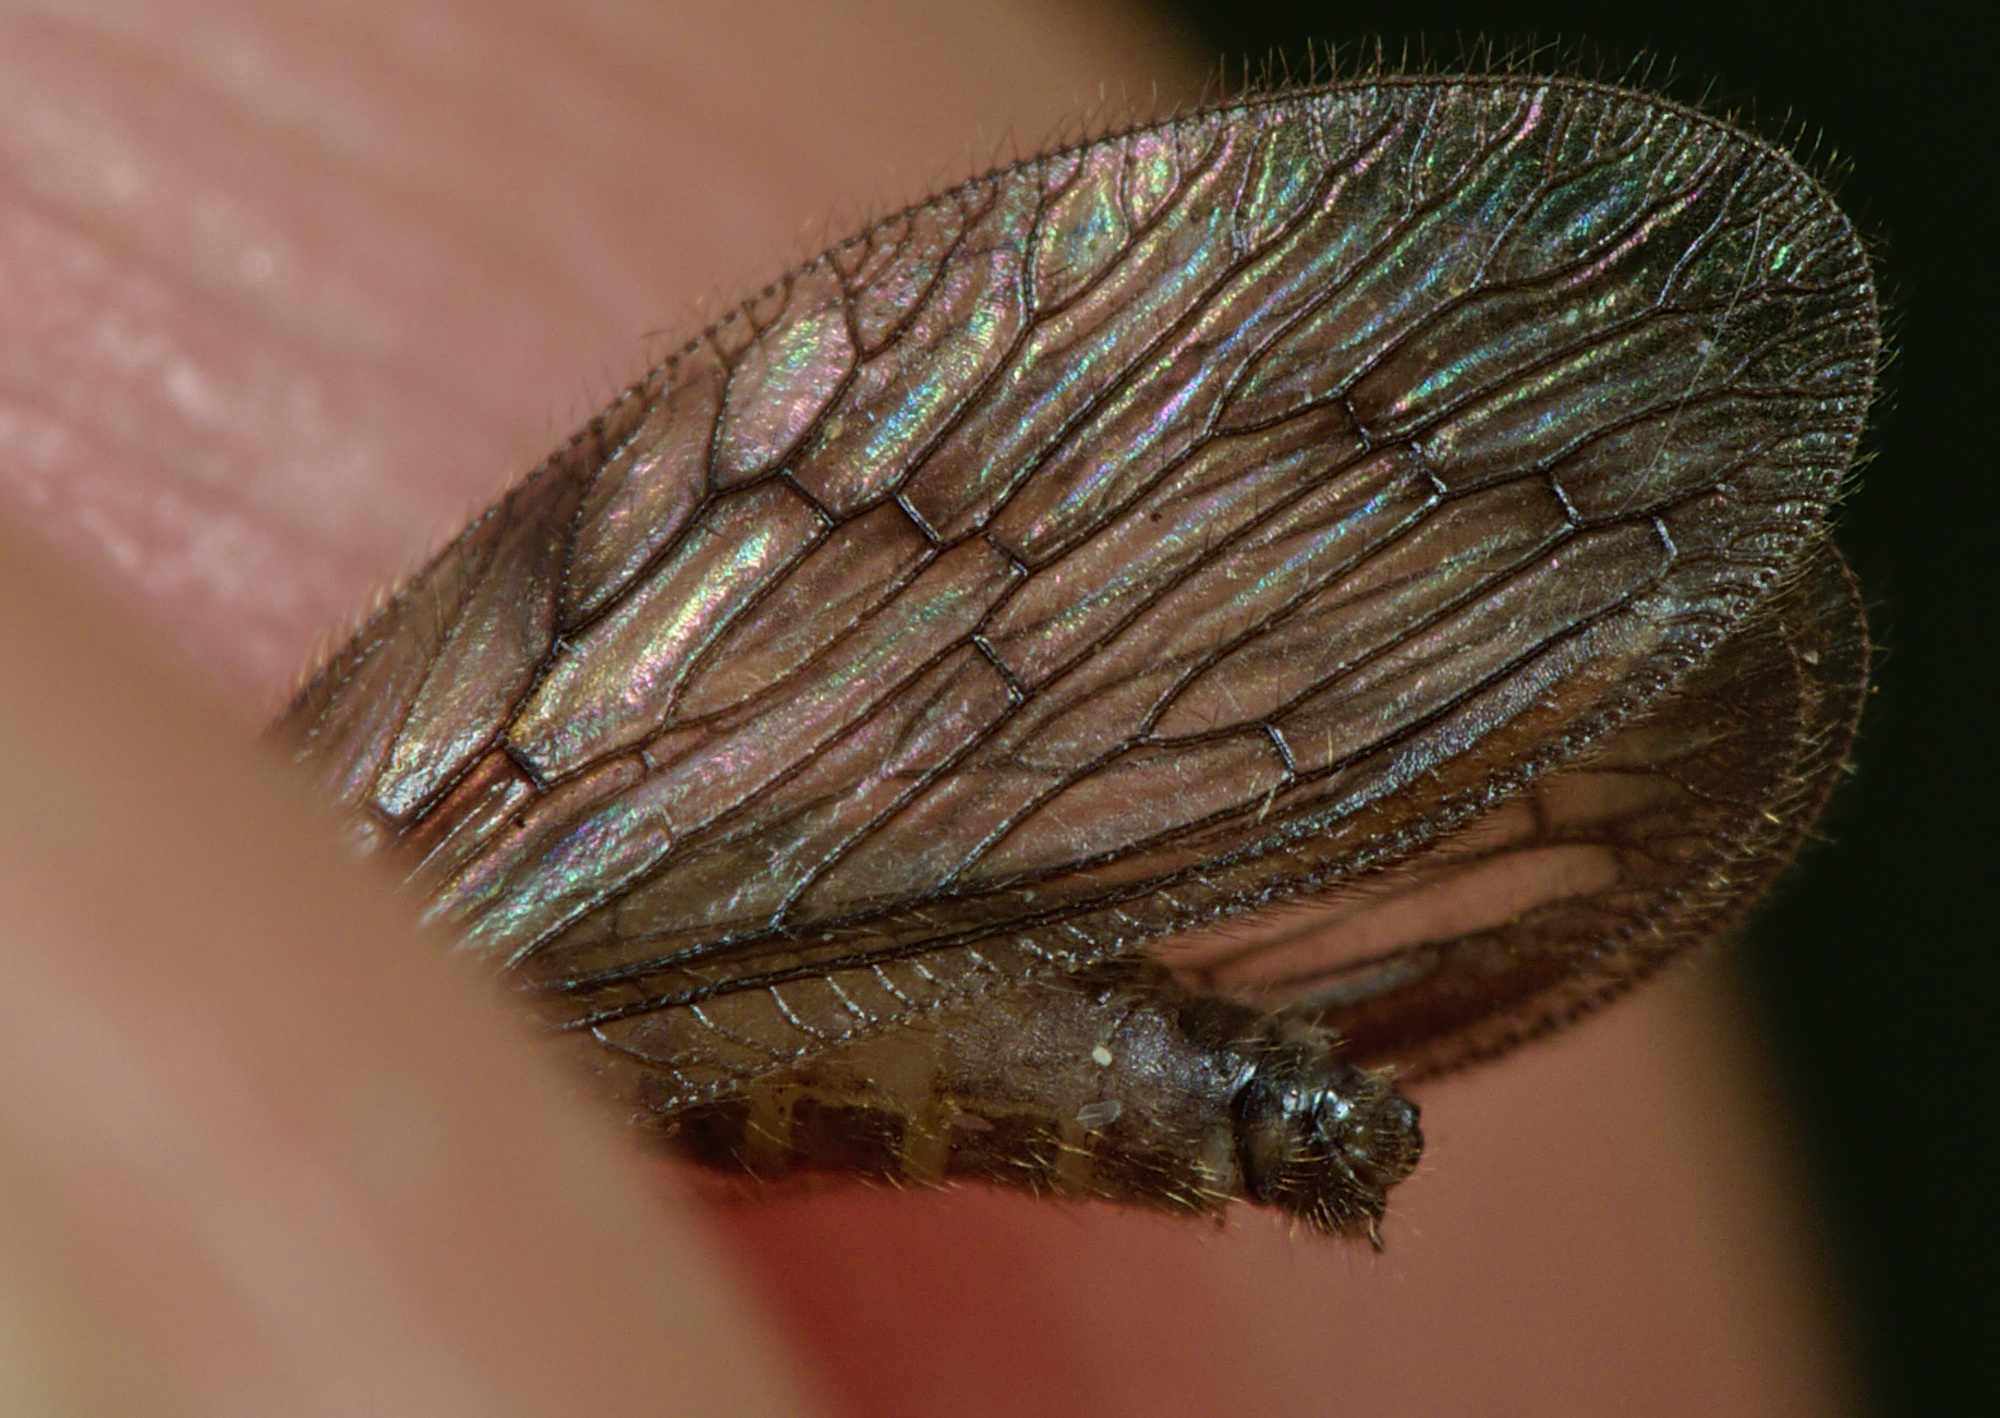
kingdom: Animalia
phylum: Arthropoda
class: Insecta
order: Neuroptera
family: Hemerobiidae
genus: Sympherobius
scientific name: Sympherobius klapaleki
